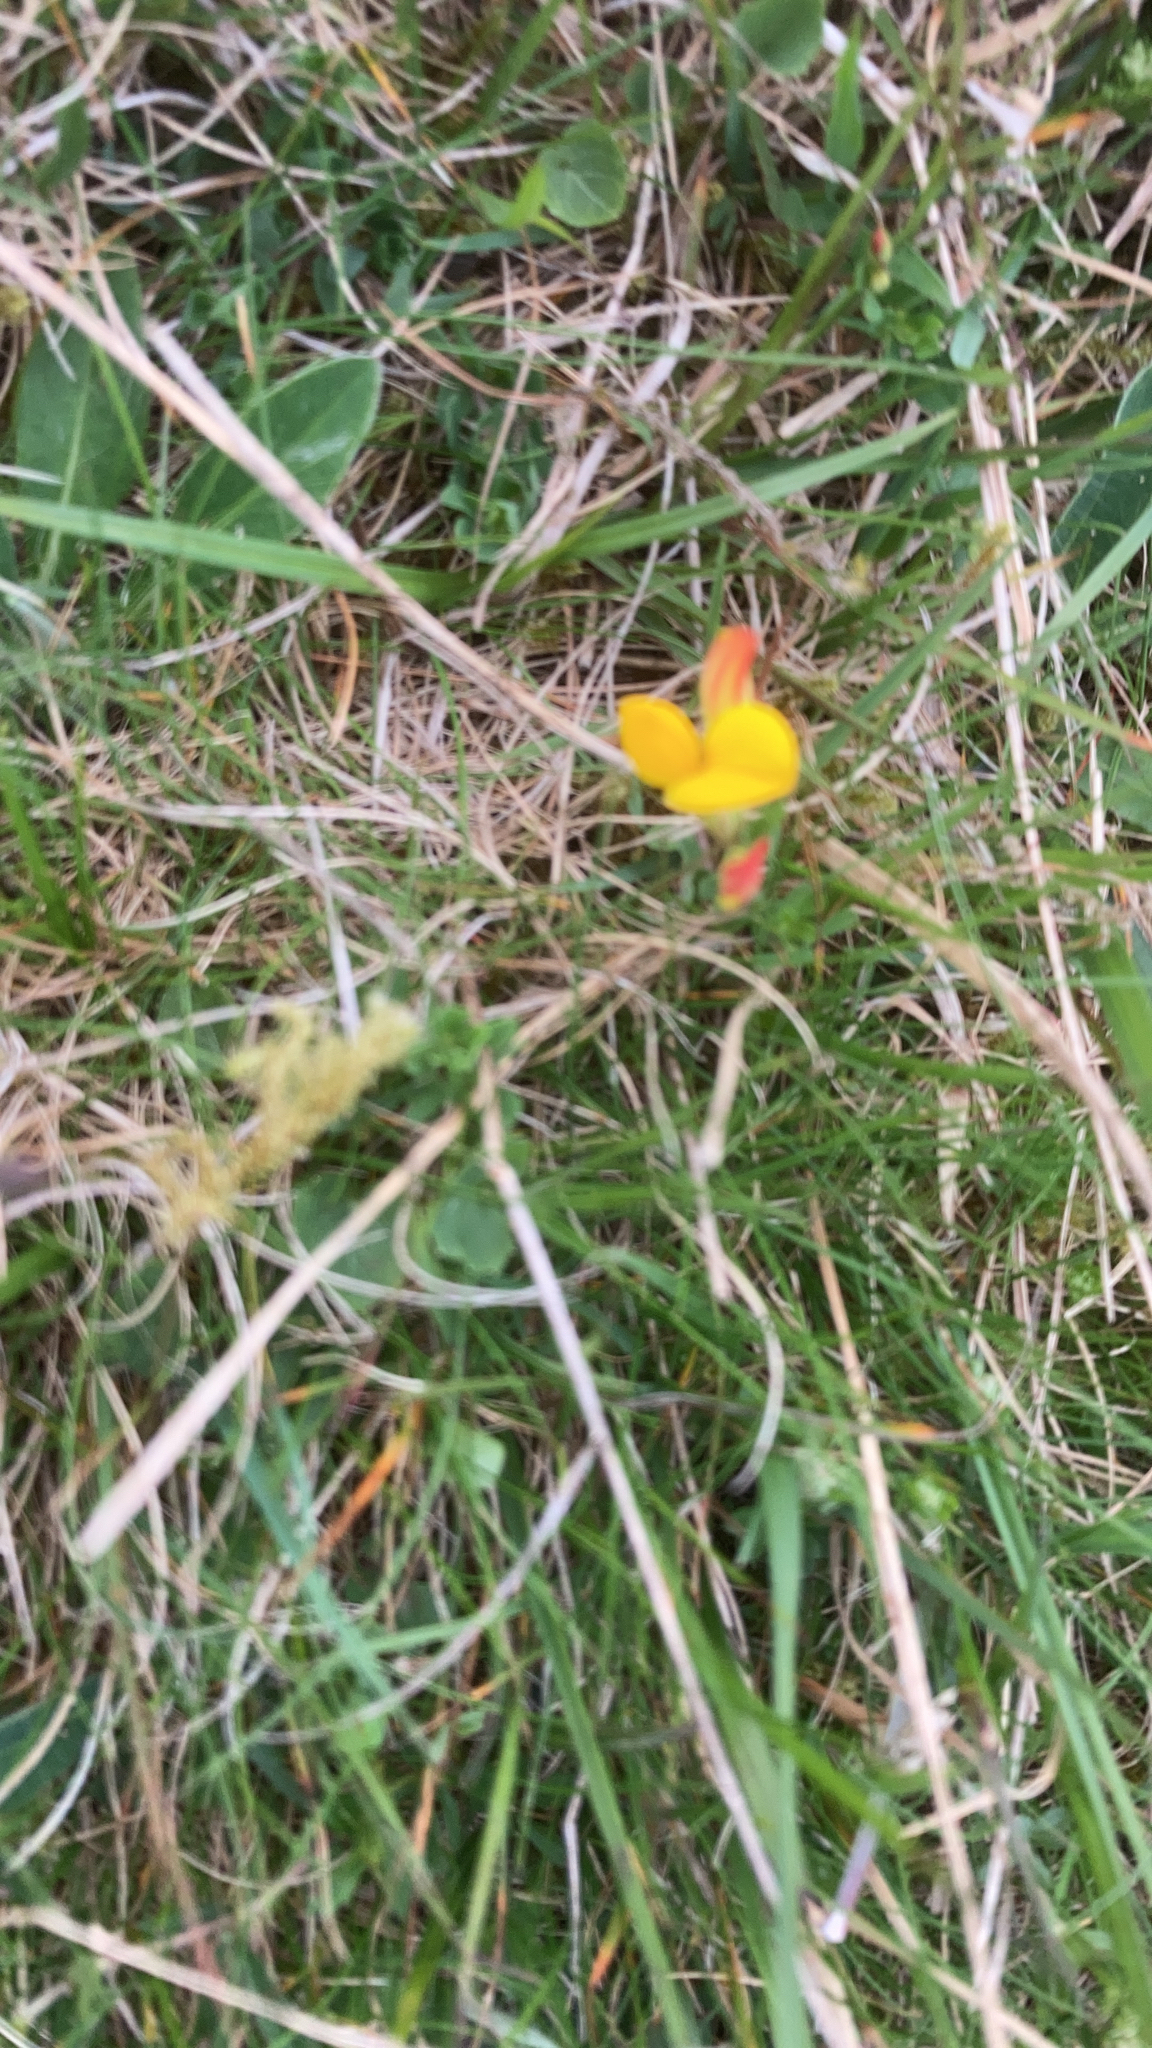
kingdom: Plantae
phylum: Tracheophyta
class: Magnoliopsida
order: Fabales
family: Fabaceae
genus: Lotus
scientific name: Lotus corniculatus
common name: Common bird's-foot-trefoil
